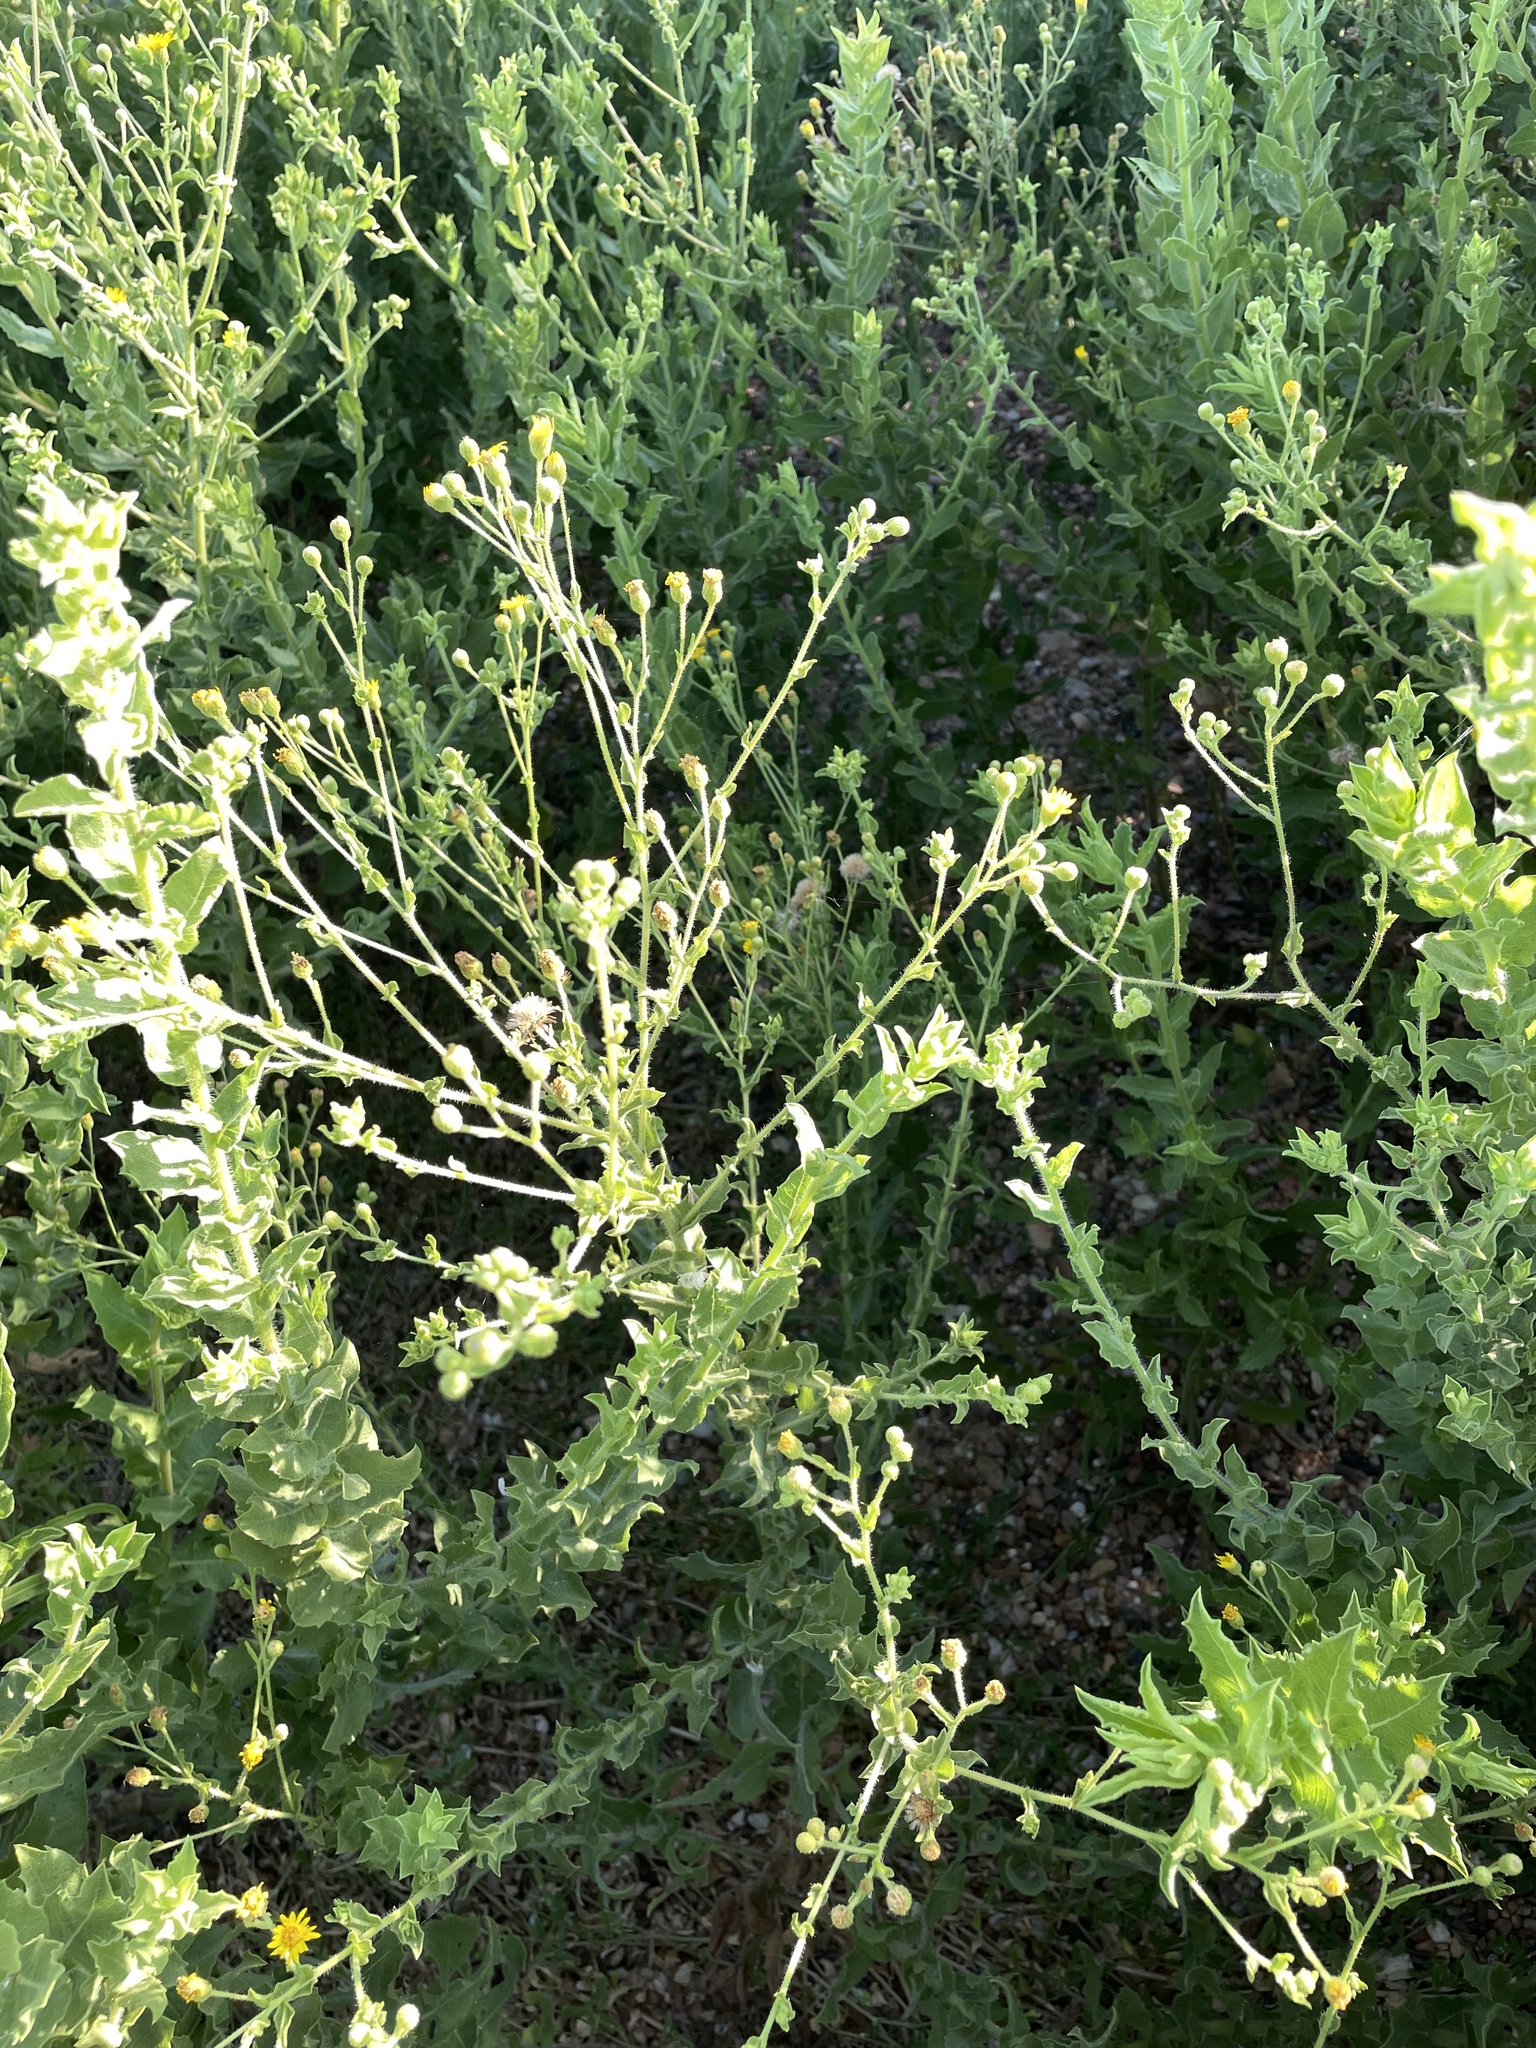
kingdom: Plantae
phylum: Tracheophyta
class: Magnoliopsida
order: Asterales
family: Asteraceae
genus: Heterotheca
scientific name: Heterotheca subaxillaris
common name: Camphorweed
